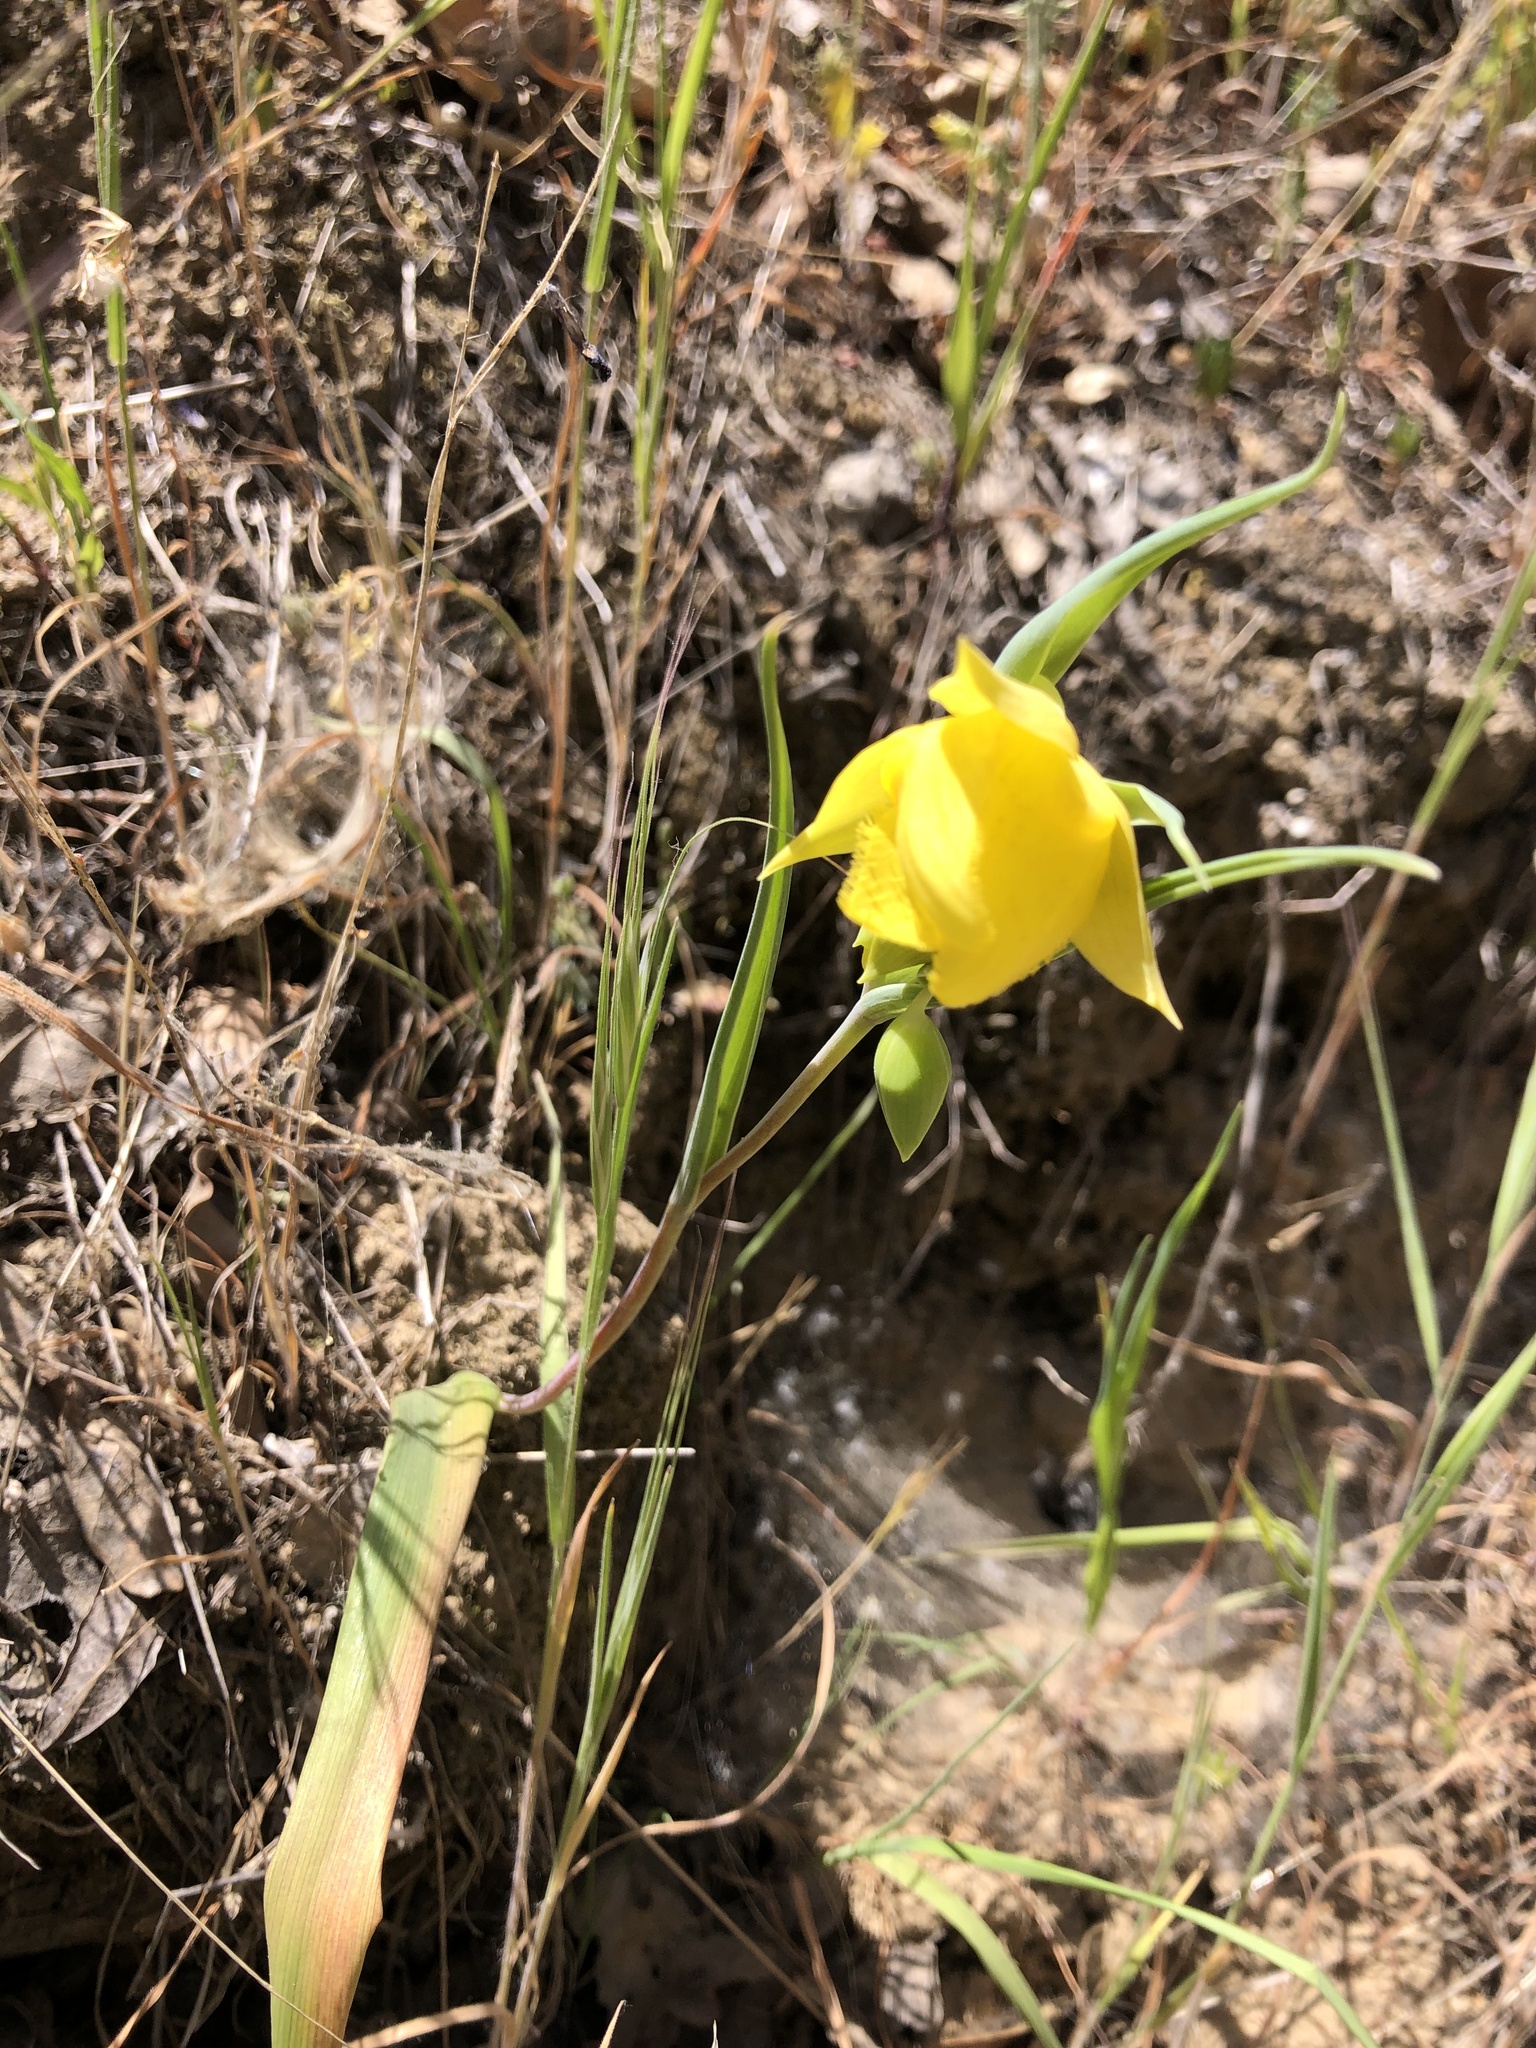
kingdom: Plantae
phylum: Tracheophyta
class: Liliopsida
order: Liliales
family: Liliaceae
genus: Calochortus
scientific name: Calochortus pulchellus
